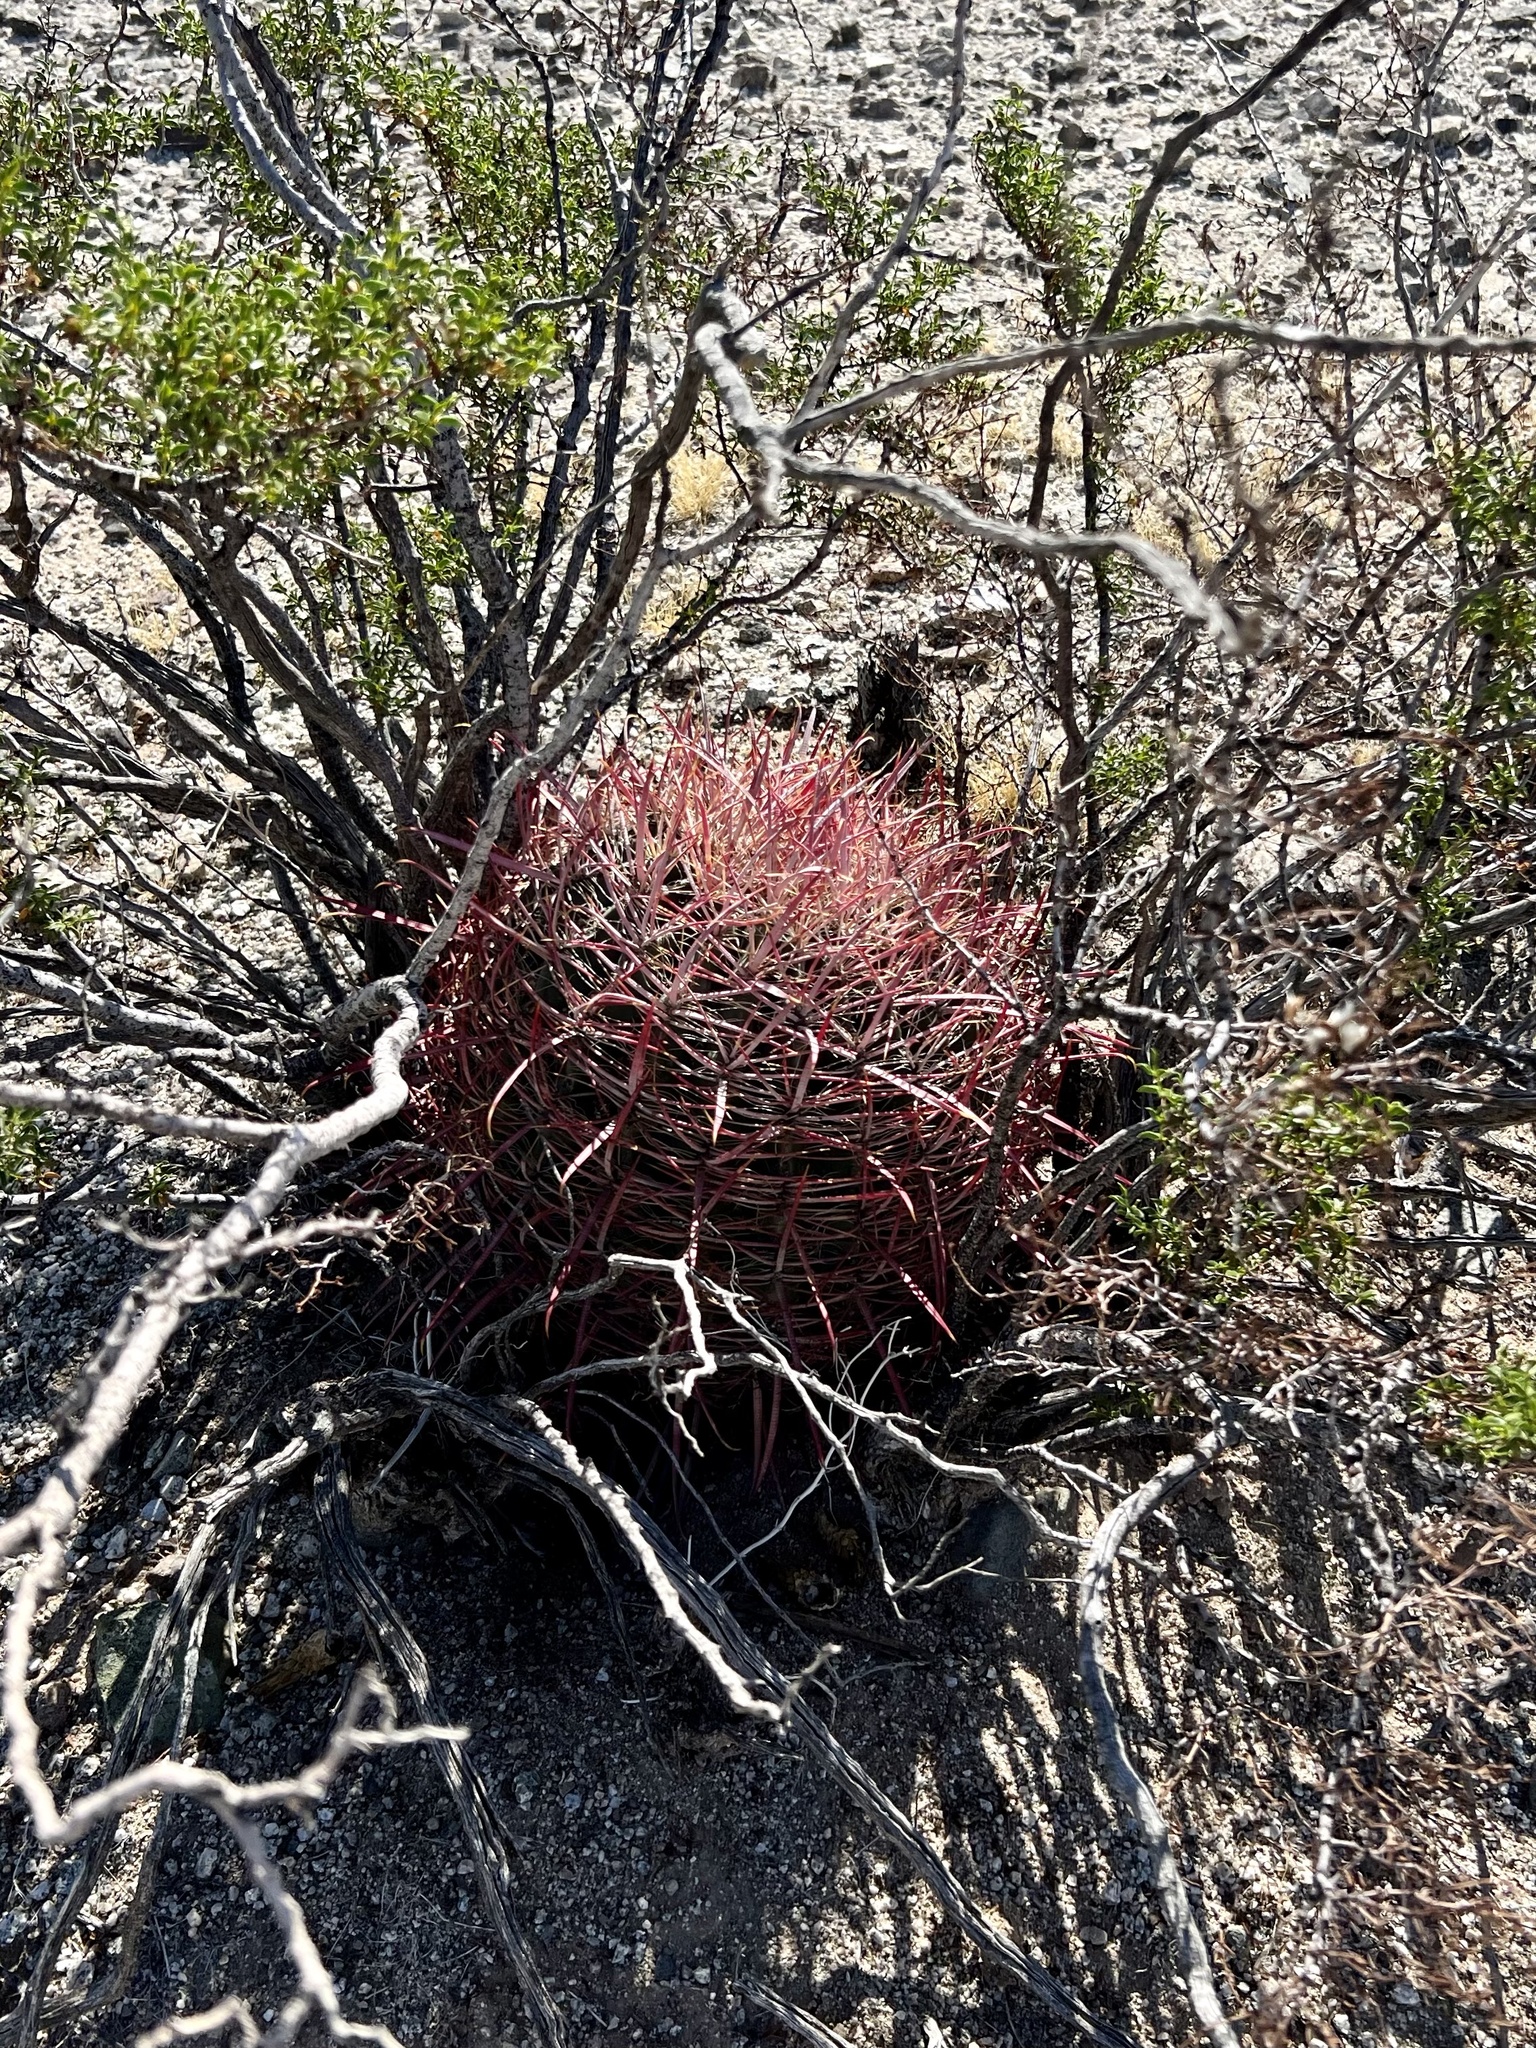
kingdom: Plantae
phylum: Tracheophyta
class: Magnoliopsida
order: Caryophyllales
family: Cactaceae
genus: Ferocactus
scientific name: Ferocactus cylindraceus
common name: California barrel cactus
